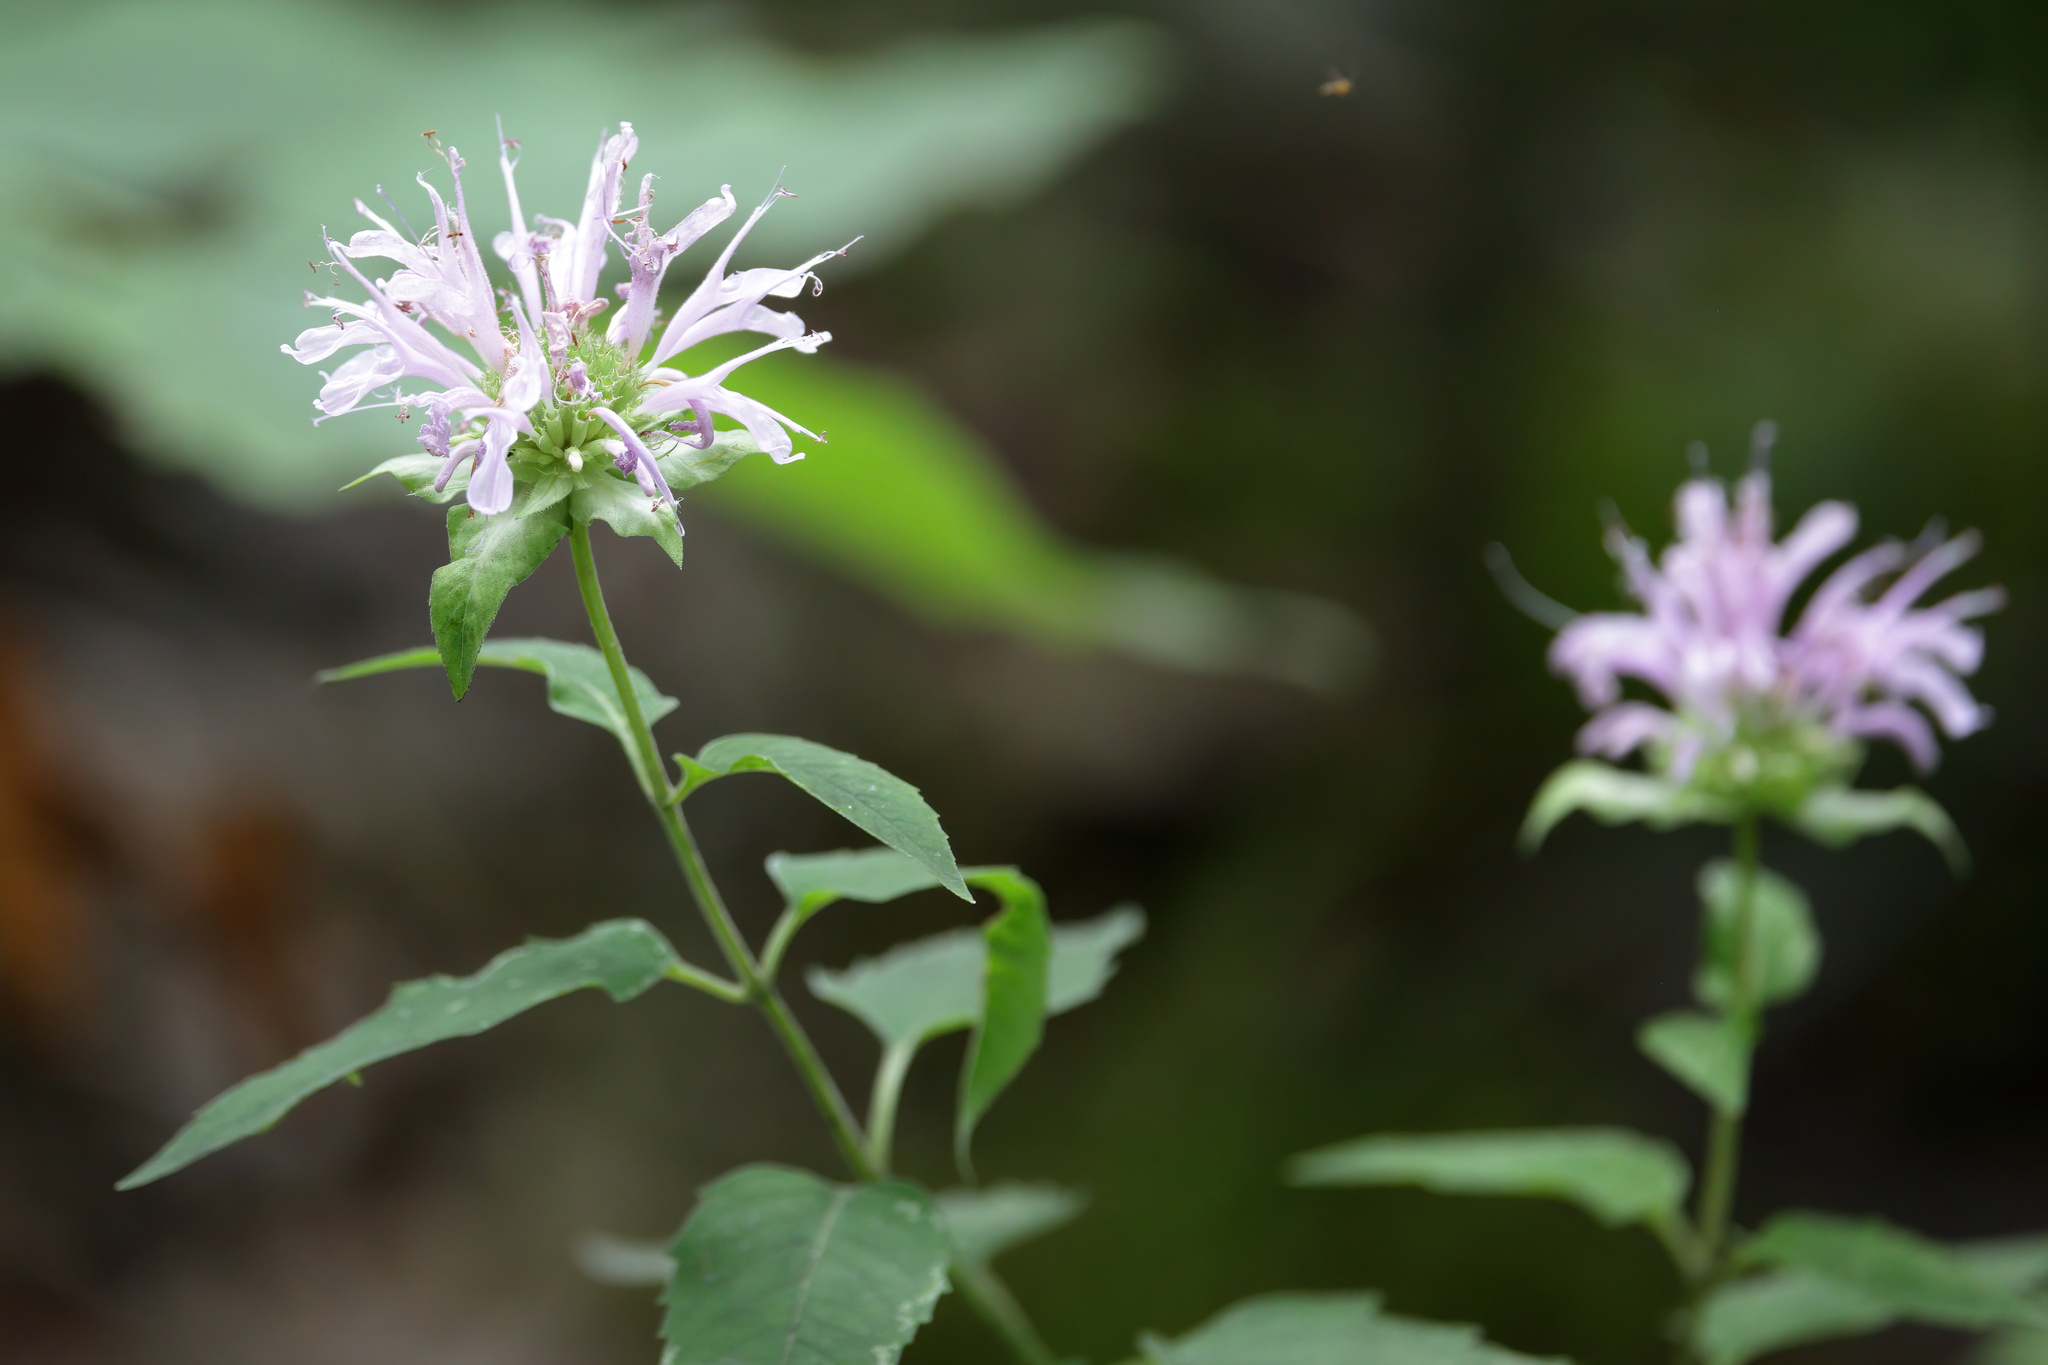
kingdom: Plantae
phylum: Tracheophyta
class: Magnoliopsida
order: Lamiales
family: Lamiaceae
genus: Monarda
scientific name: Monarda fistulosa
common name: Purple beebalm
